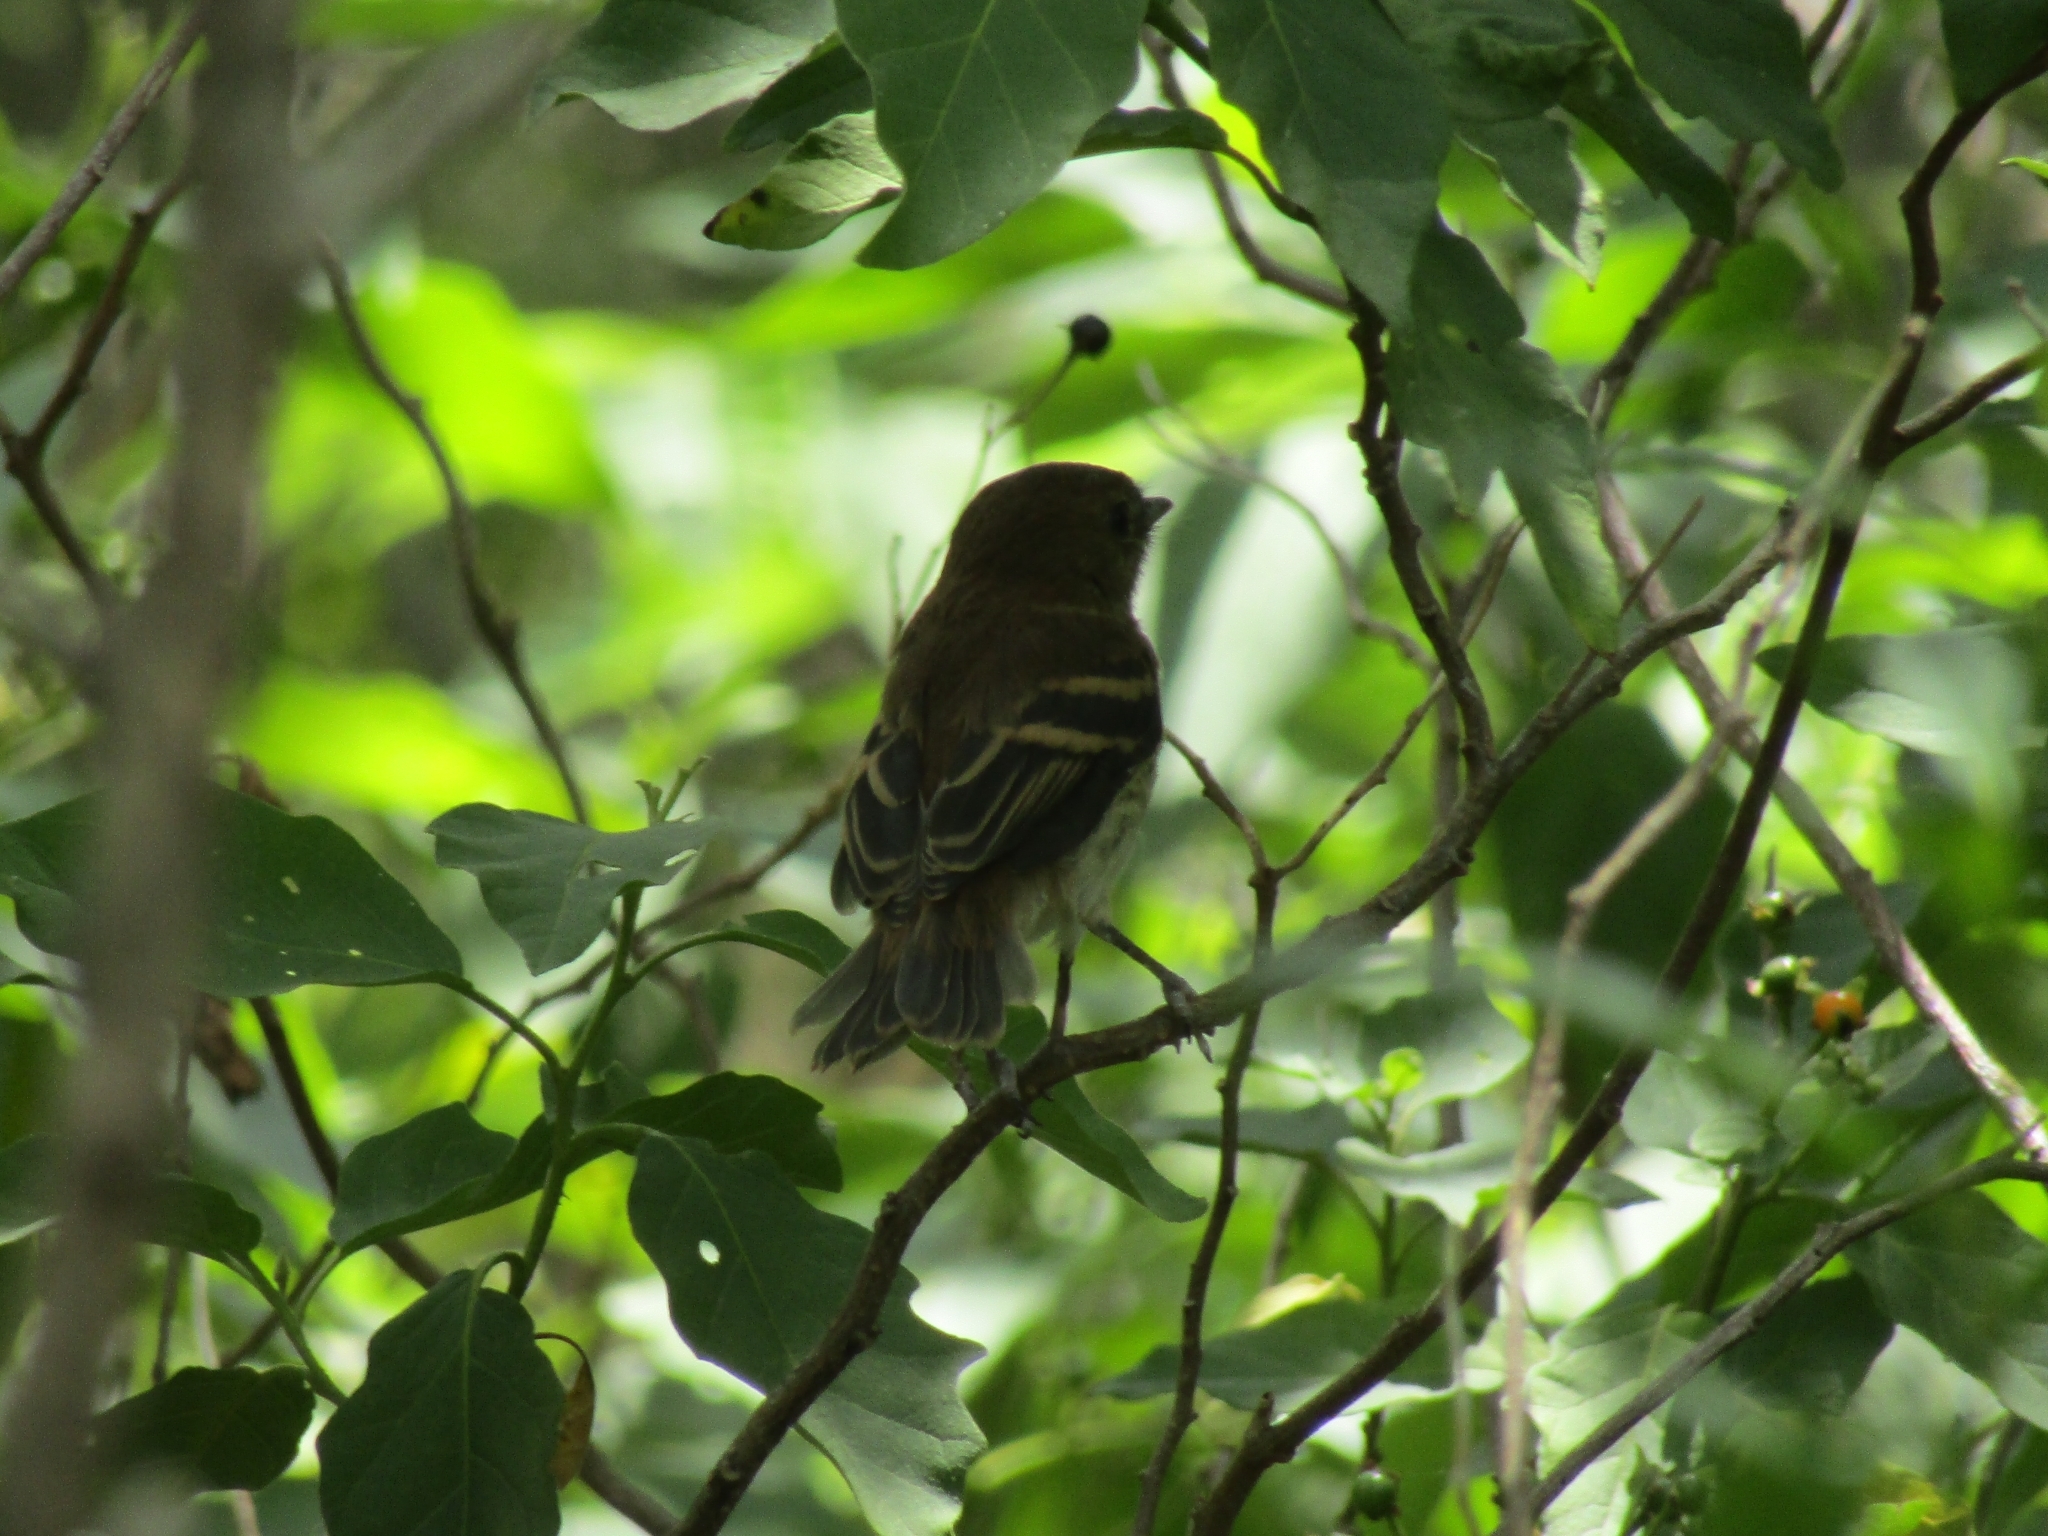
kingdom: Animalia
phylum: Chordata
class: Aves
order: Passeriformes
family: Tyrannidae
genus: Myiophobus
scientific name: Myiophobus fasciatus
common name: Bran-colored flycatcher
